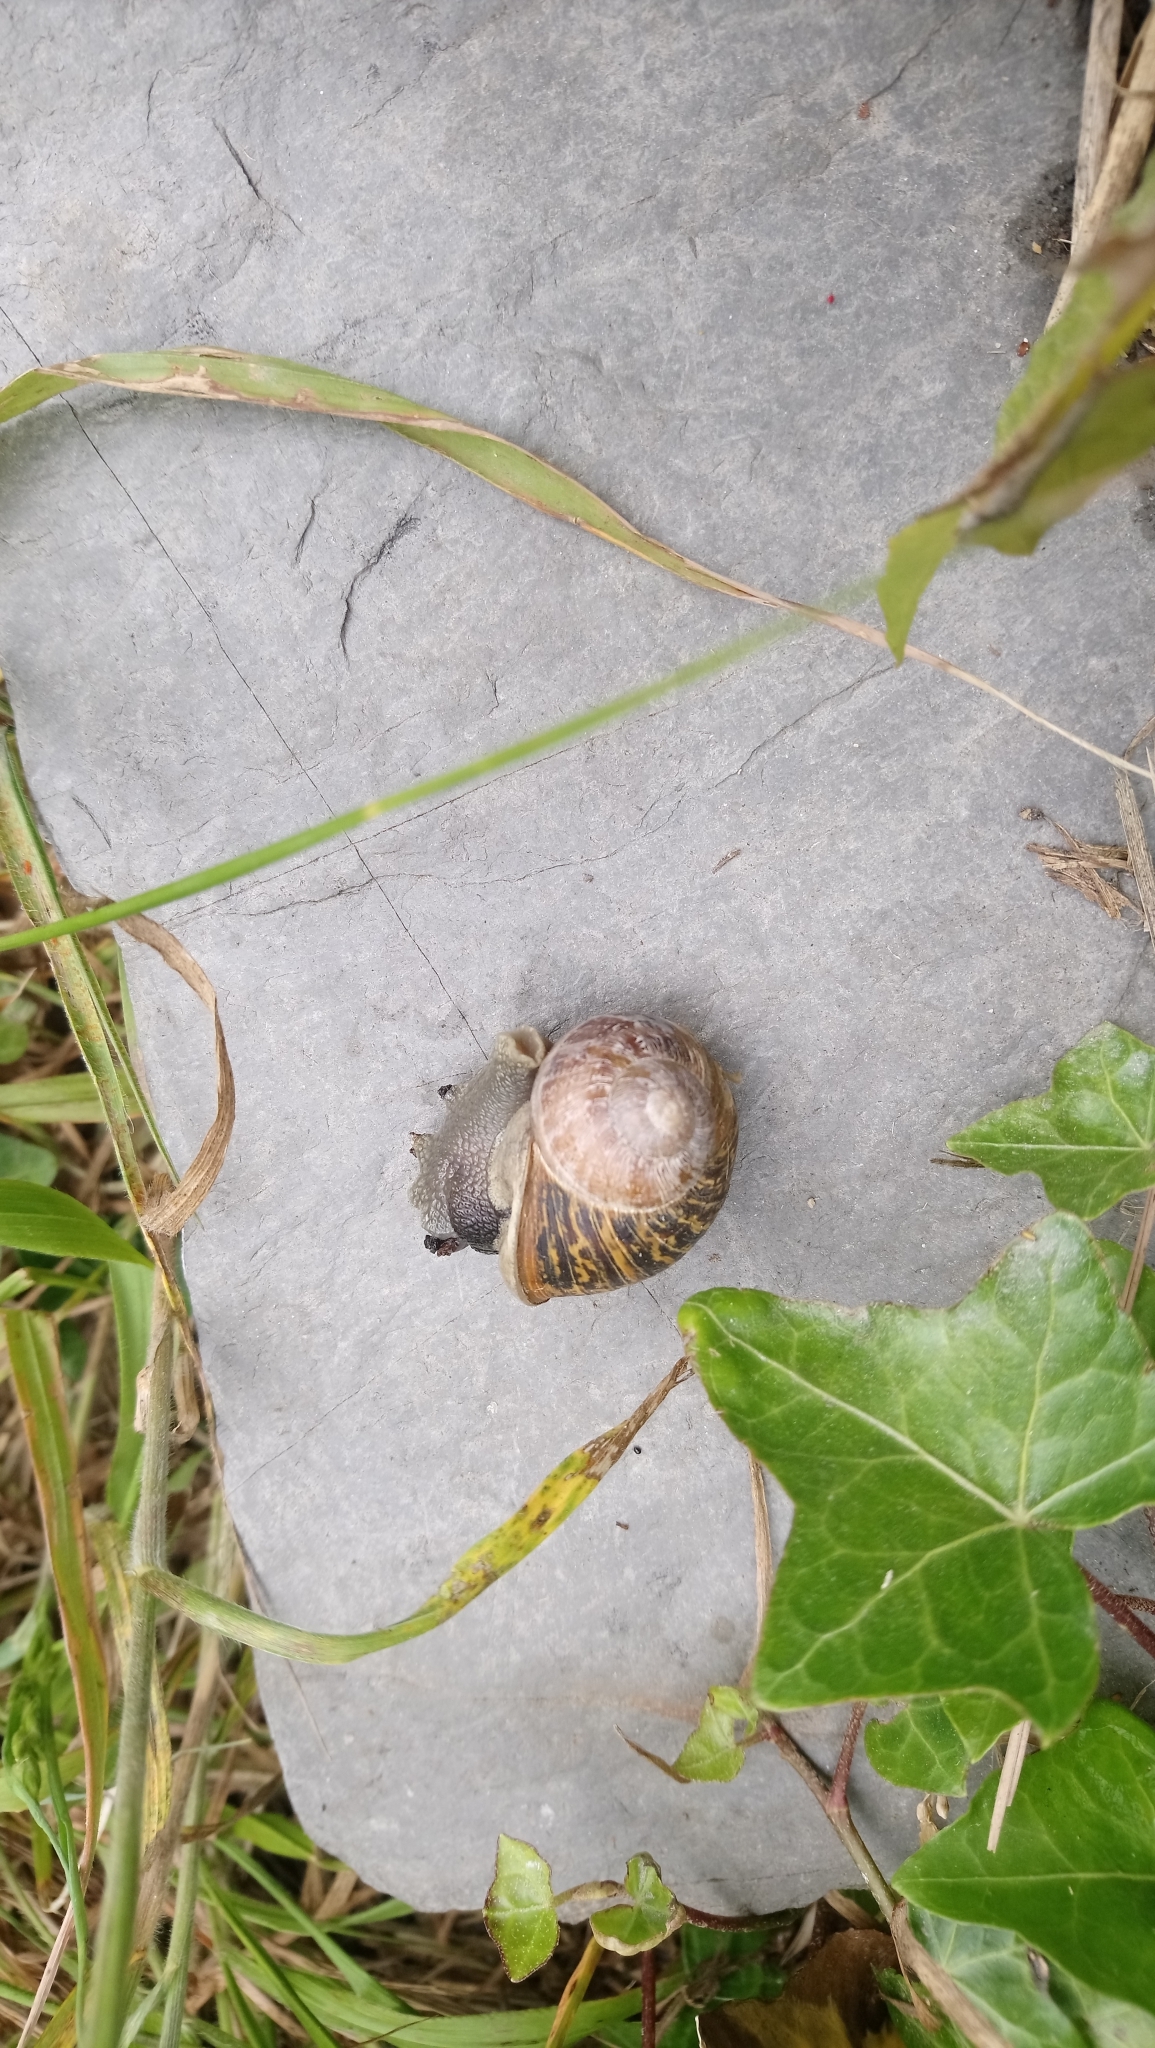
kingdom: Animalia
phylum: Mollusca
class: Gastropoda
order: Stylommatophora
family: Helicidae
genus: Cornu
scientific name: Cornu aspersum
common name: Brown garden snail
